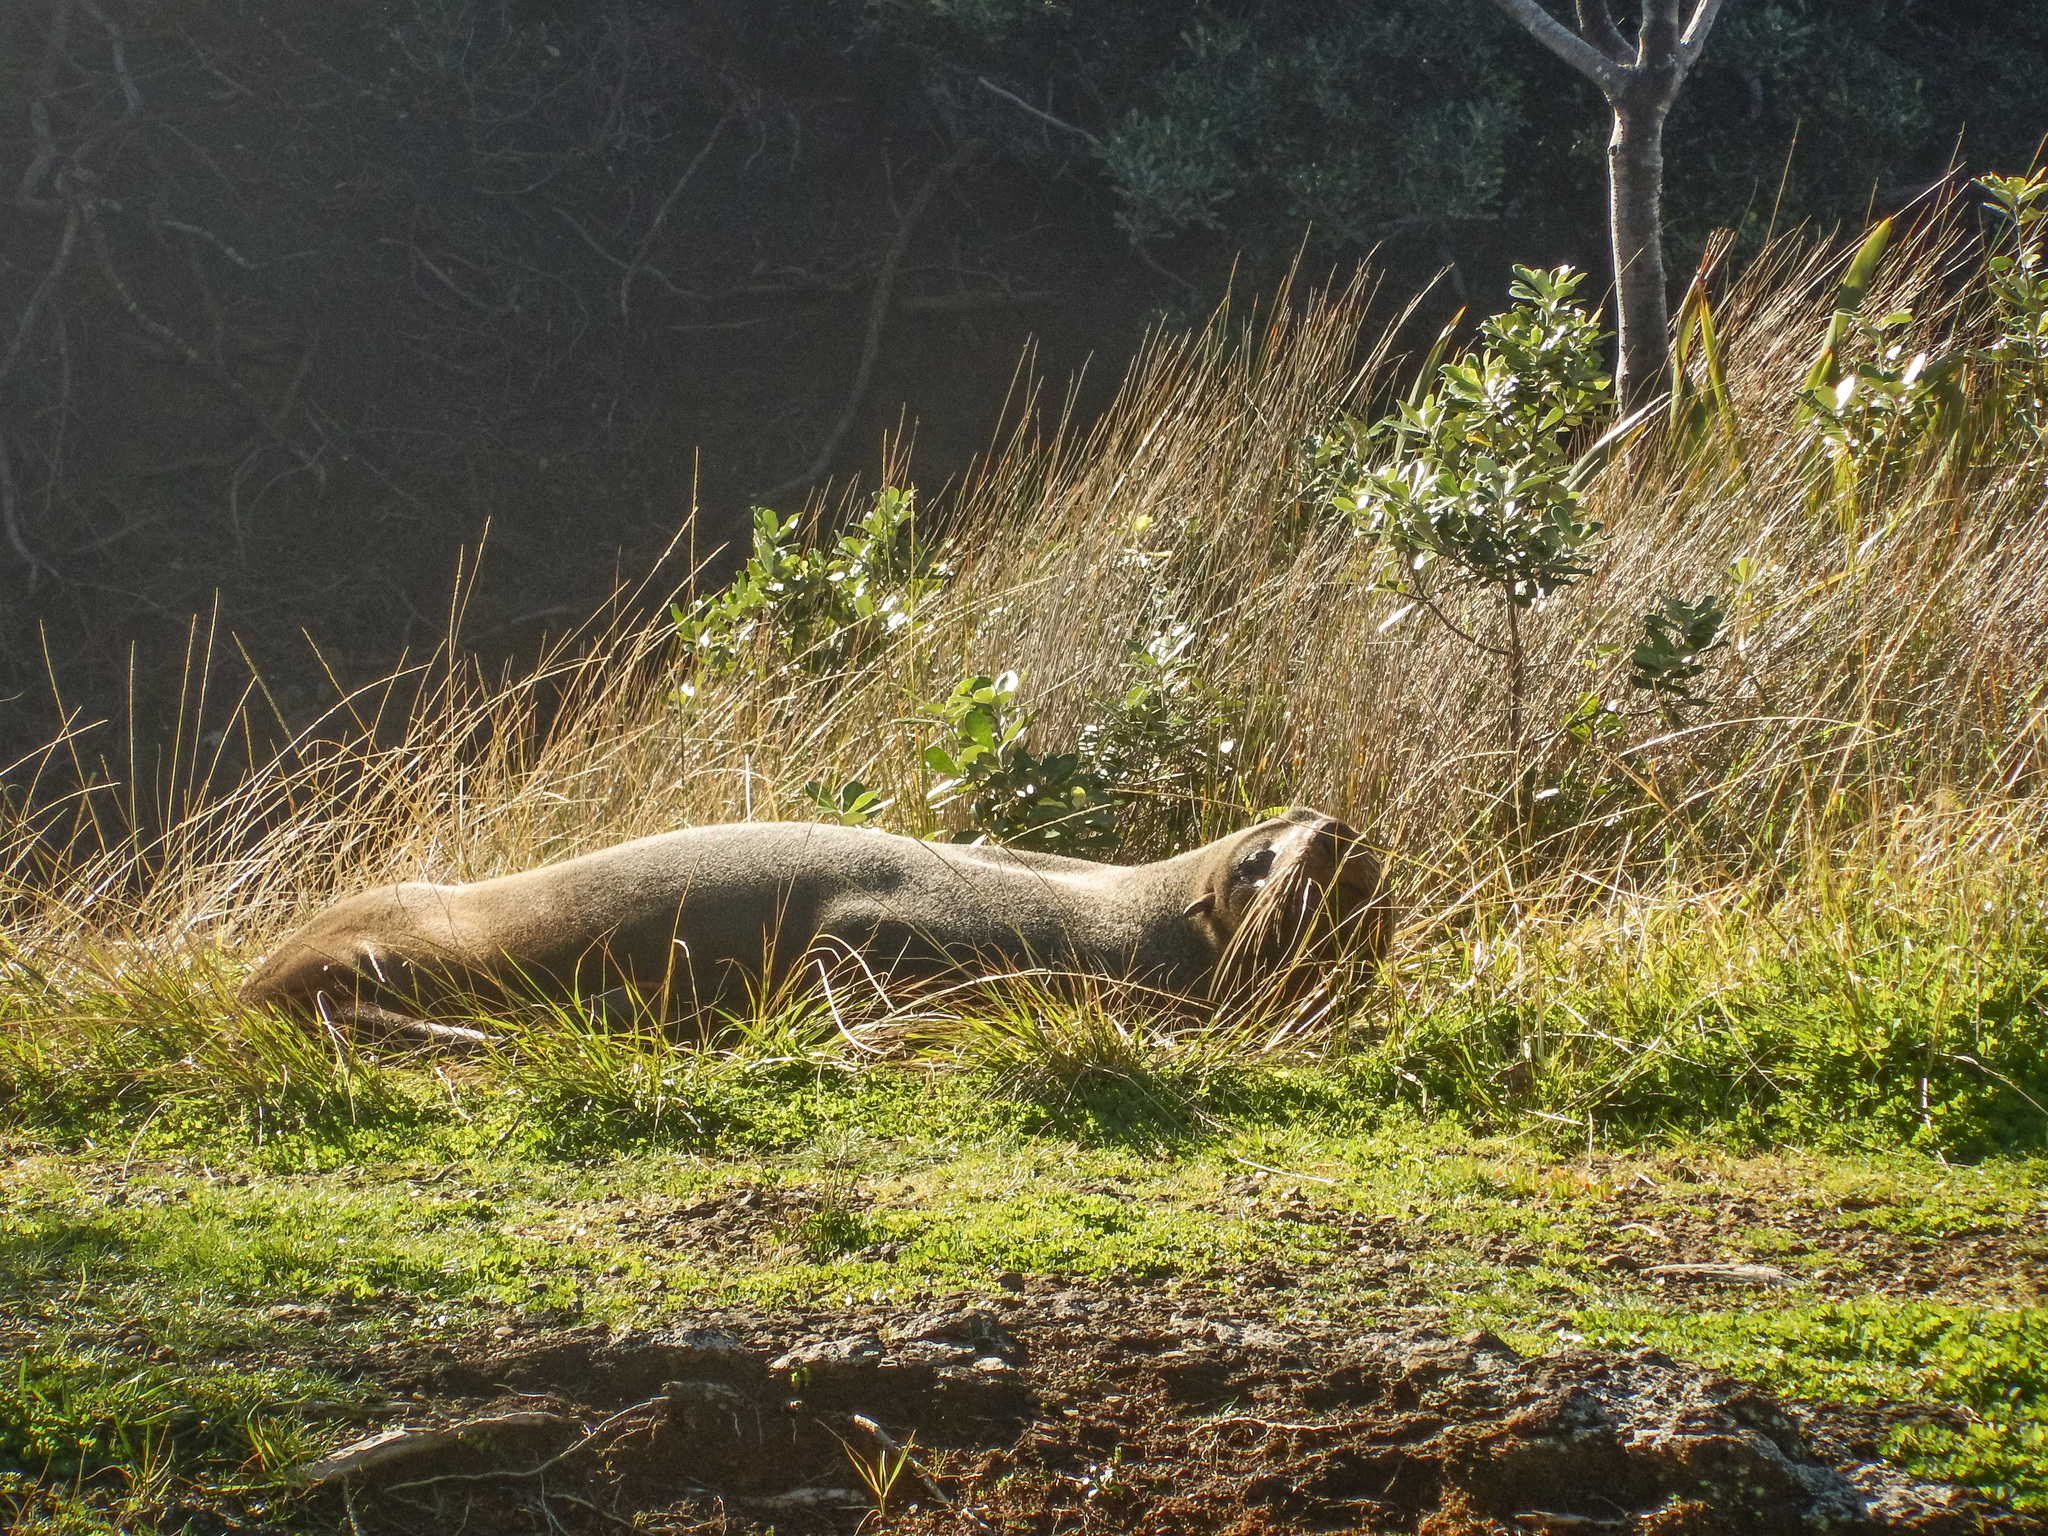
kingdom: Animalia
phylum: Chordata
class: Mammalia
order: Carnivora
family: Otariidae
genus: Arctocephalus
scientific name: Arctocephalus forsteri
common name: New zealand fur seal
